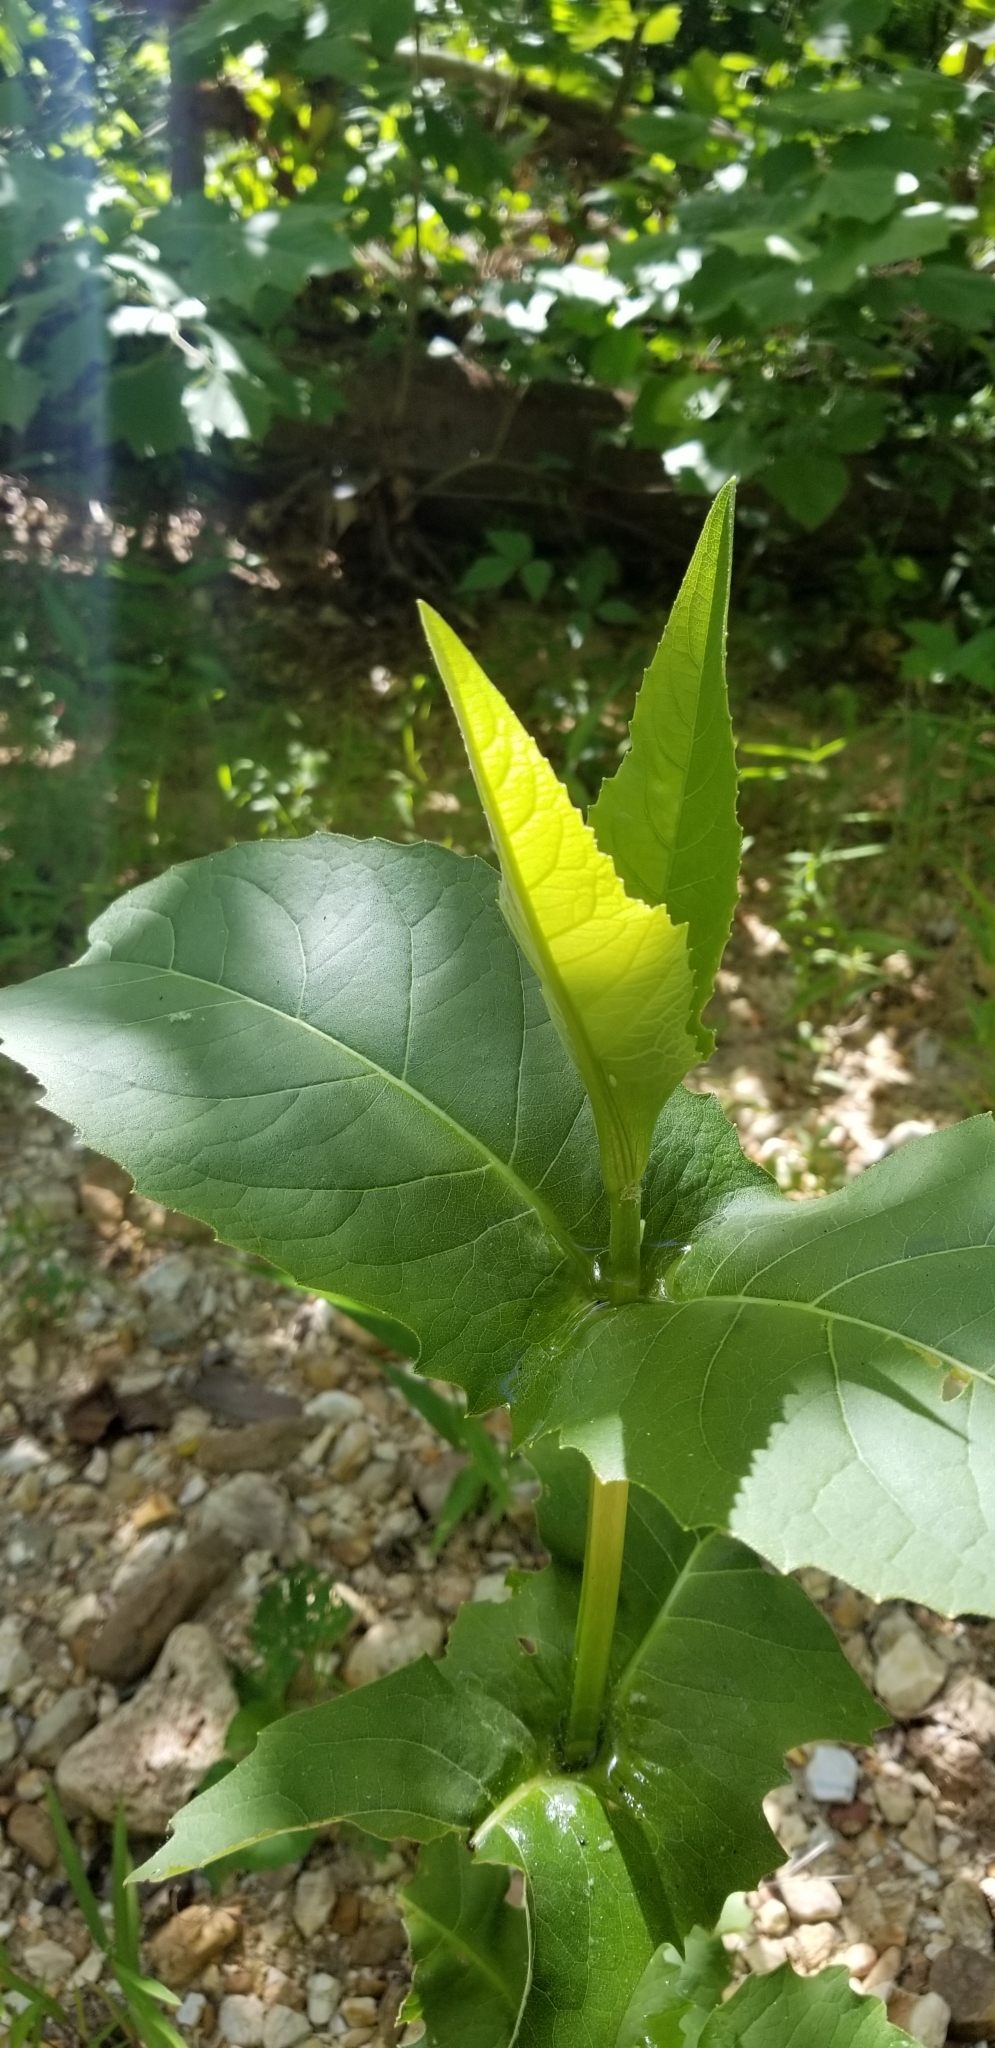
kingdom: Plantae
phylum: Tracheophyta
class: Magnoliopsida
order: Asterales
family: Asteraceae
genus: Silphium
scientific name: Silphium perfoliatum
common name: Cup-plant
